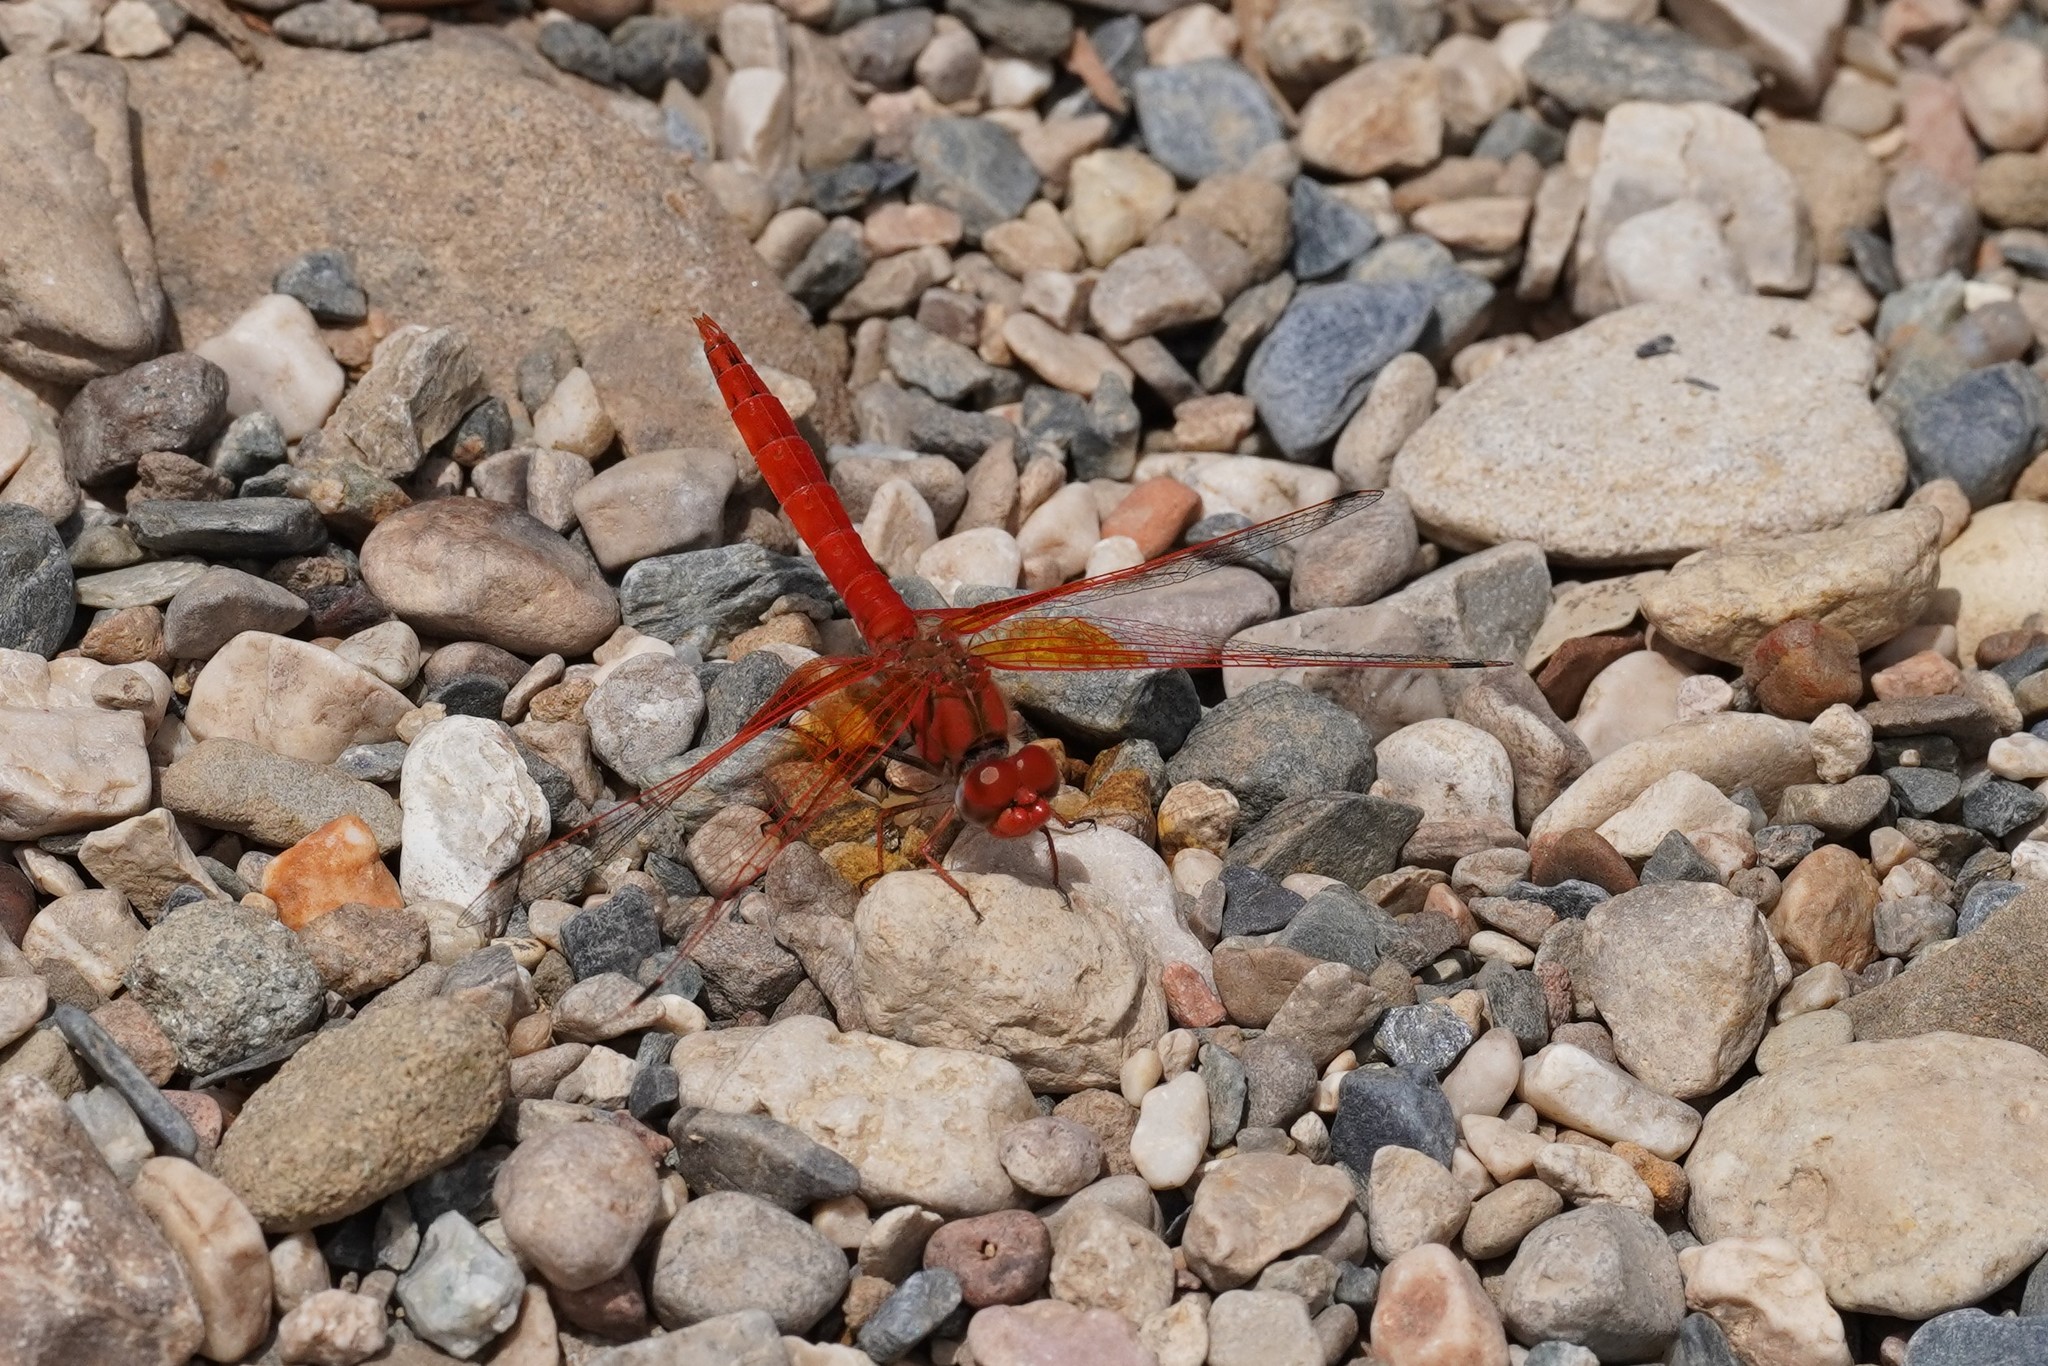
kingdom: Animalia
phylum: Arthropoda
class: Insecta
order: Odonata
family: Libellulidae
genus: Trithemis
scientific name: Trithemis kirbyi
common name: Kirby's dropwing
